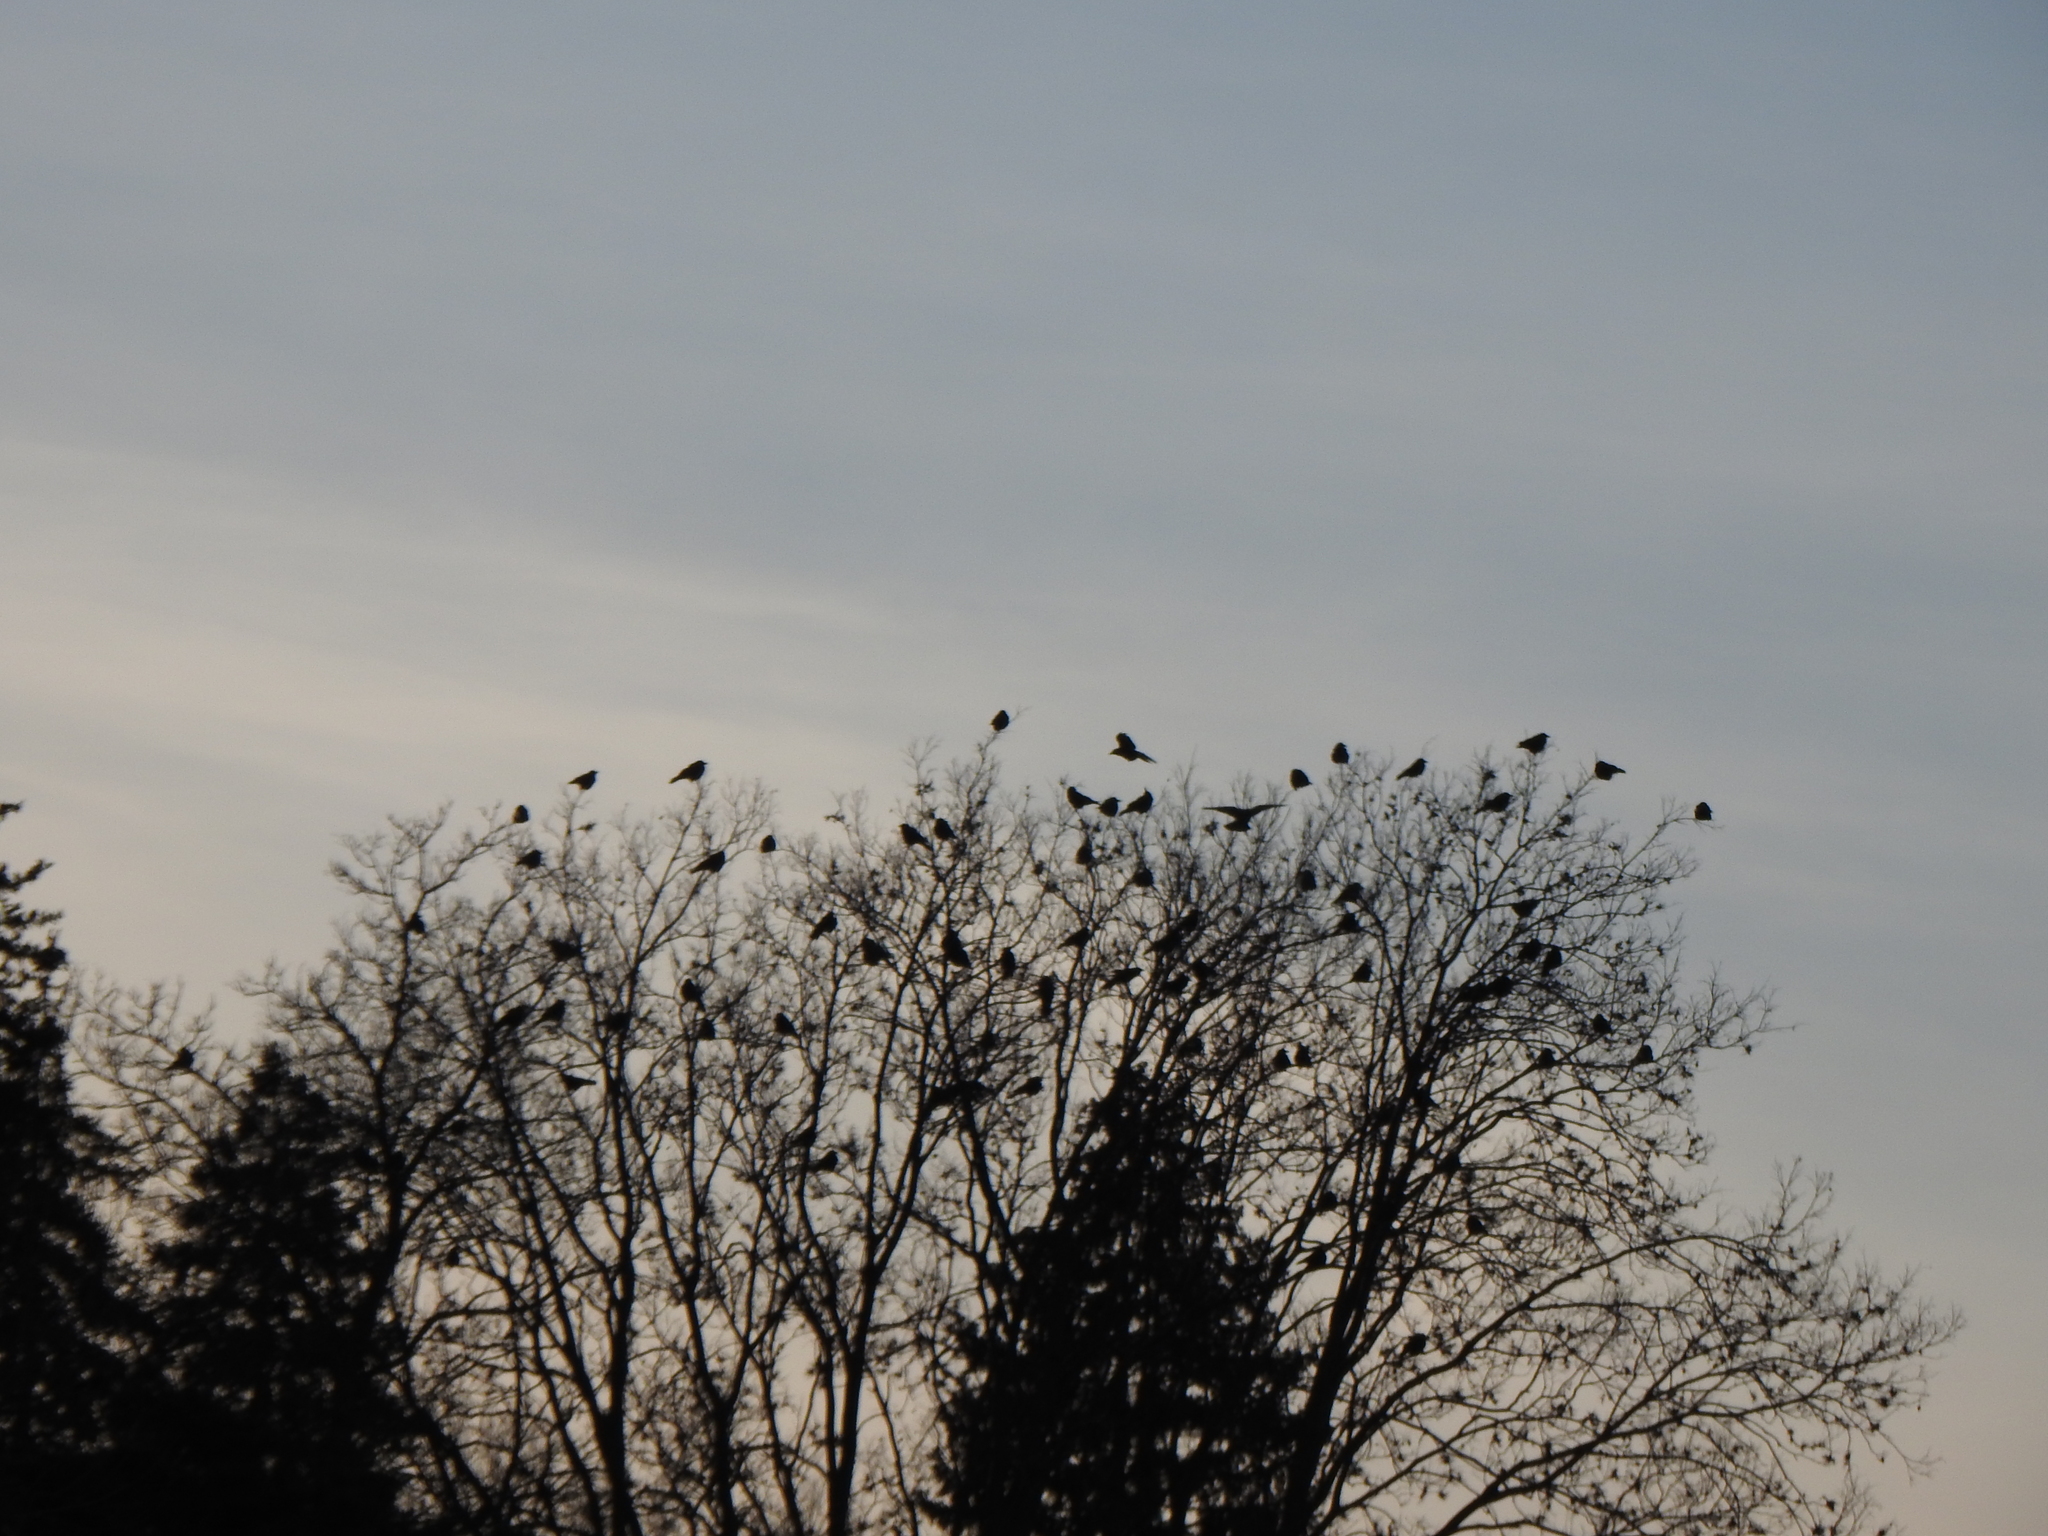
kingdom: Animalia
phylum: Chordata
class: Aves
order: Passeriformes
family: Corvidae
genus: Corvus
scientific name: Corvus brachyrhynchos
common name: American crow
